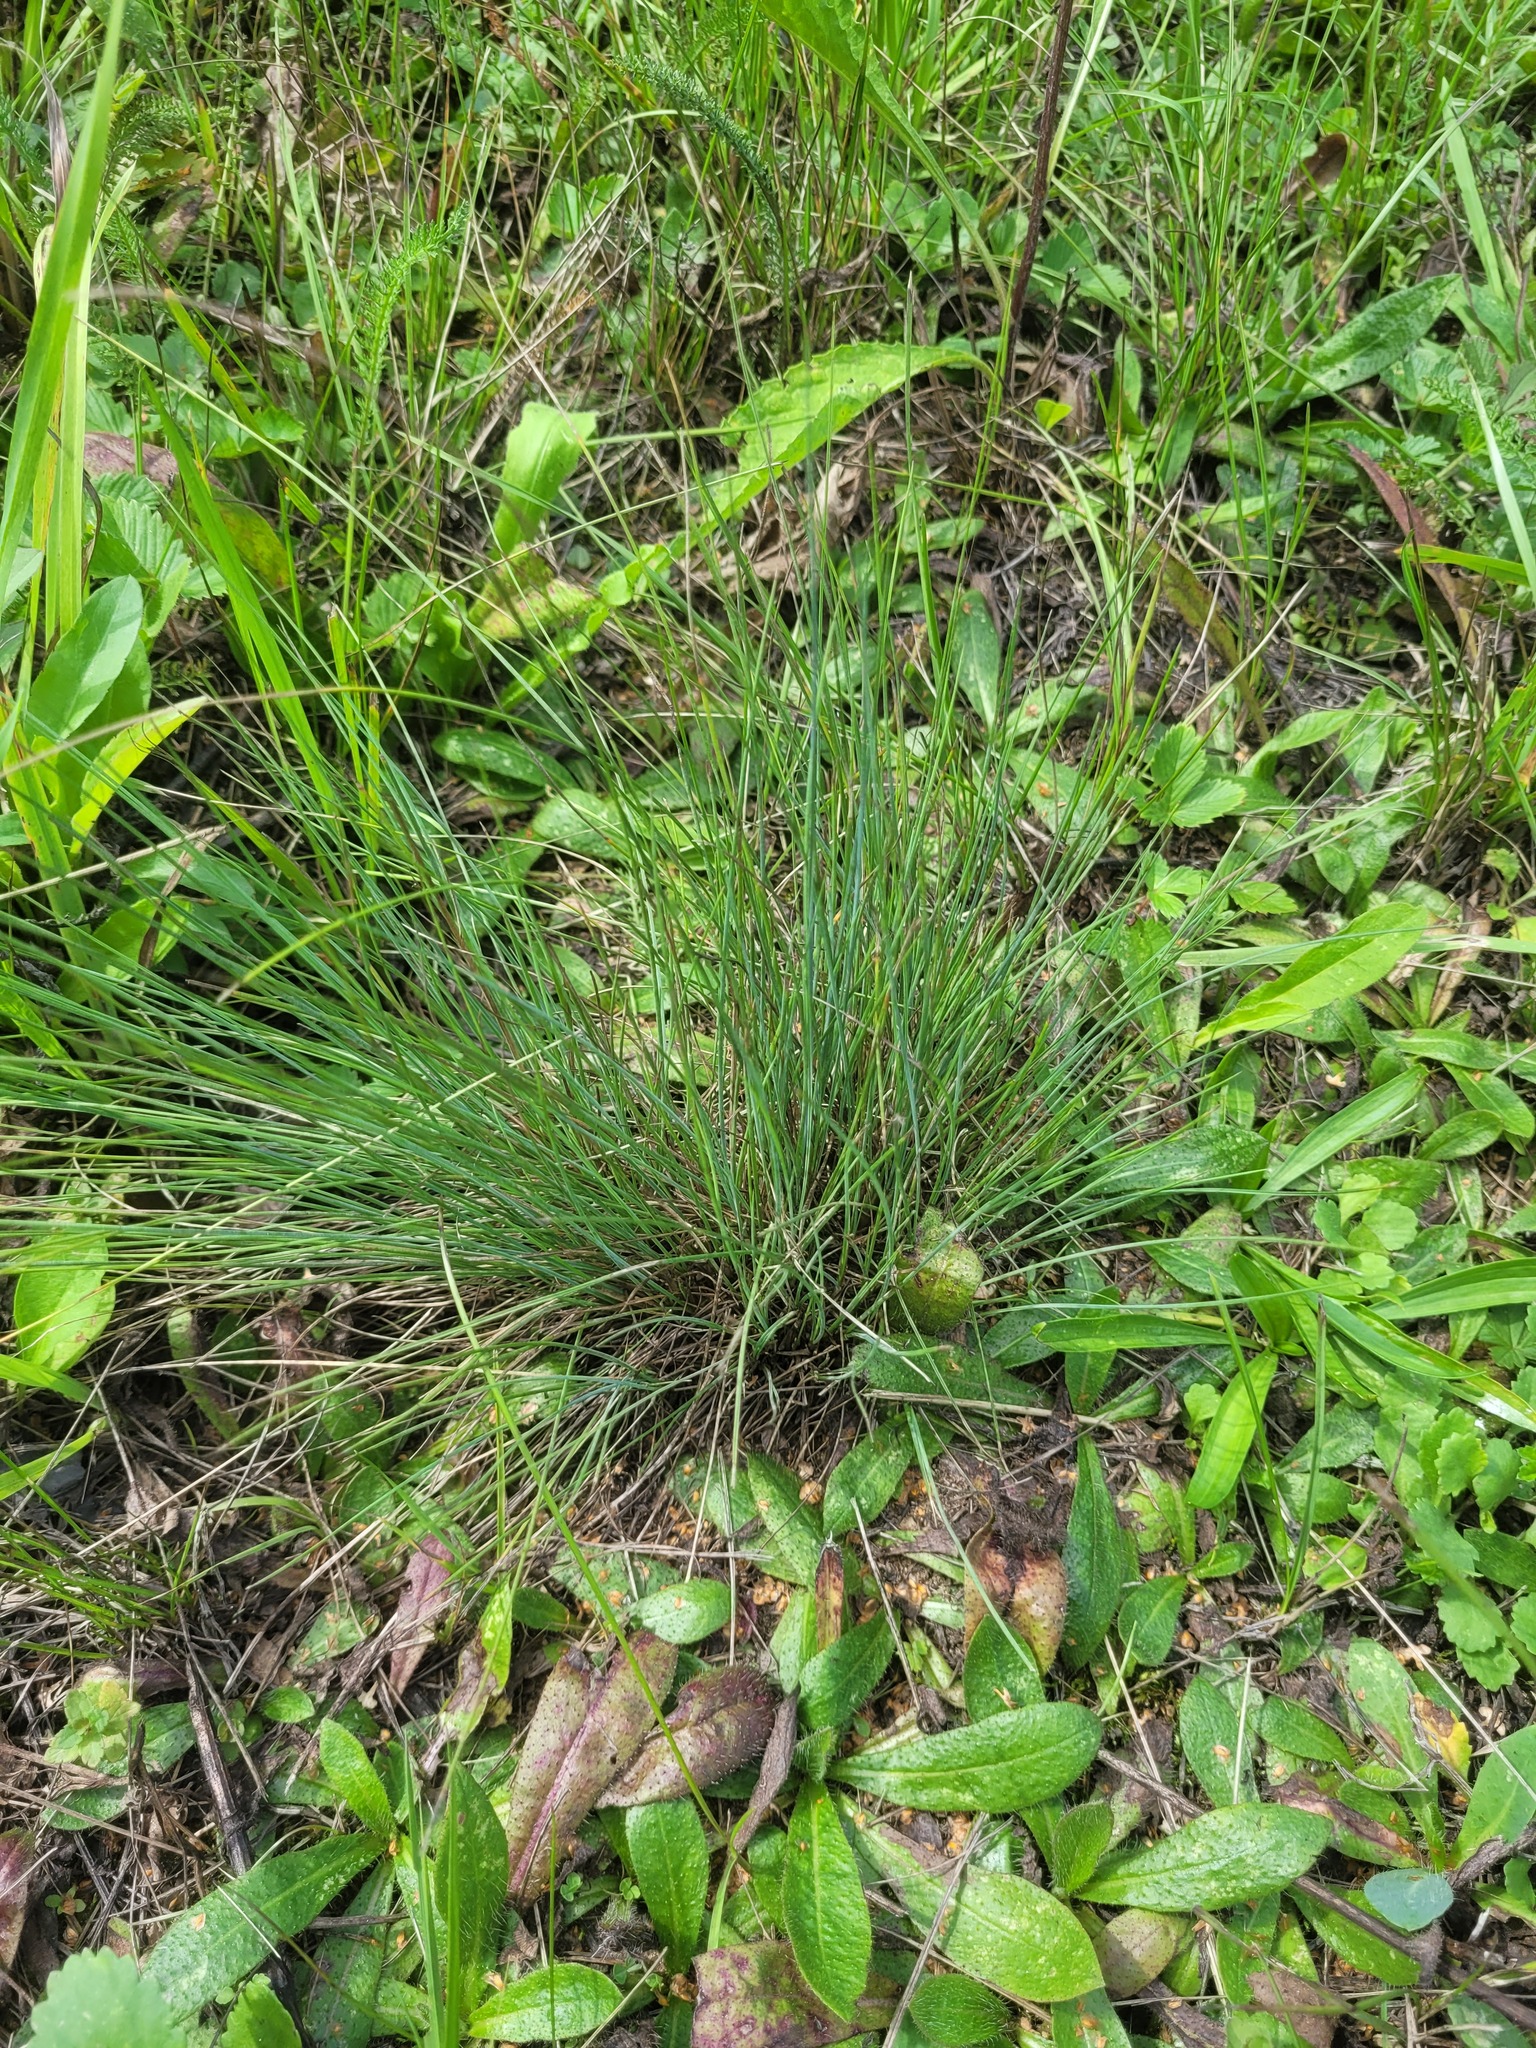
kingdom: Plantae
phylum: Tracheophyta
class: Liliopsida
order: Poales
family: Poaceae
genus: Festuca
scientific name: Festuca valesiaca
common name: Volga fescue
